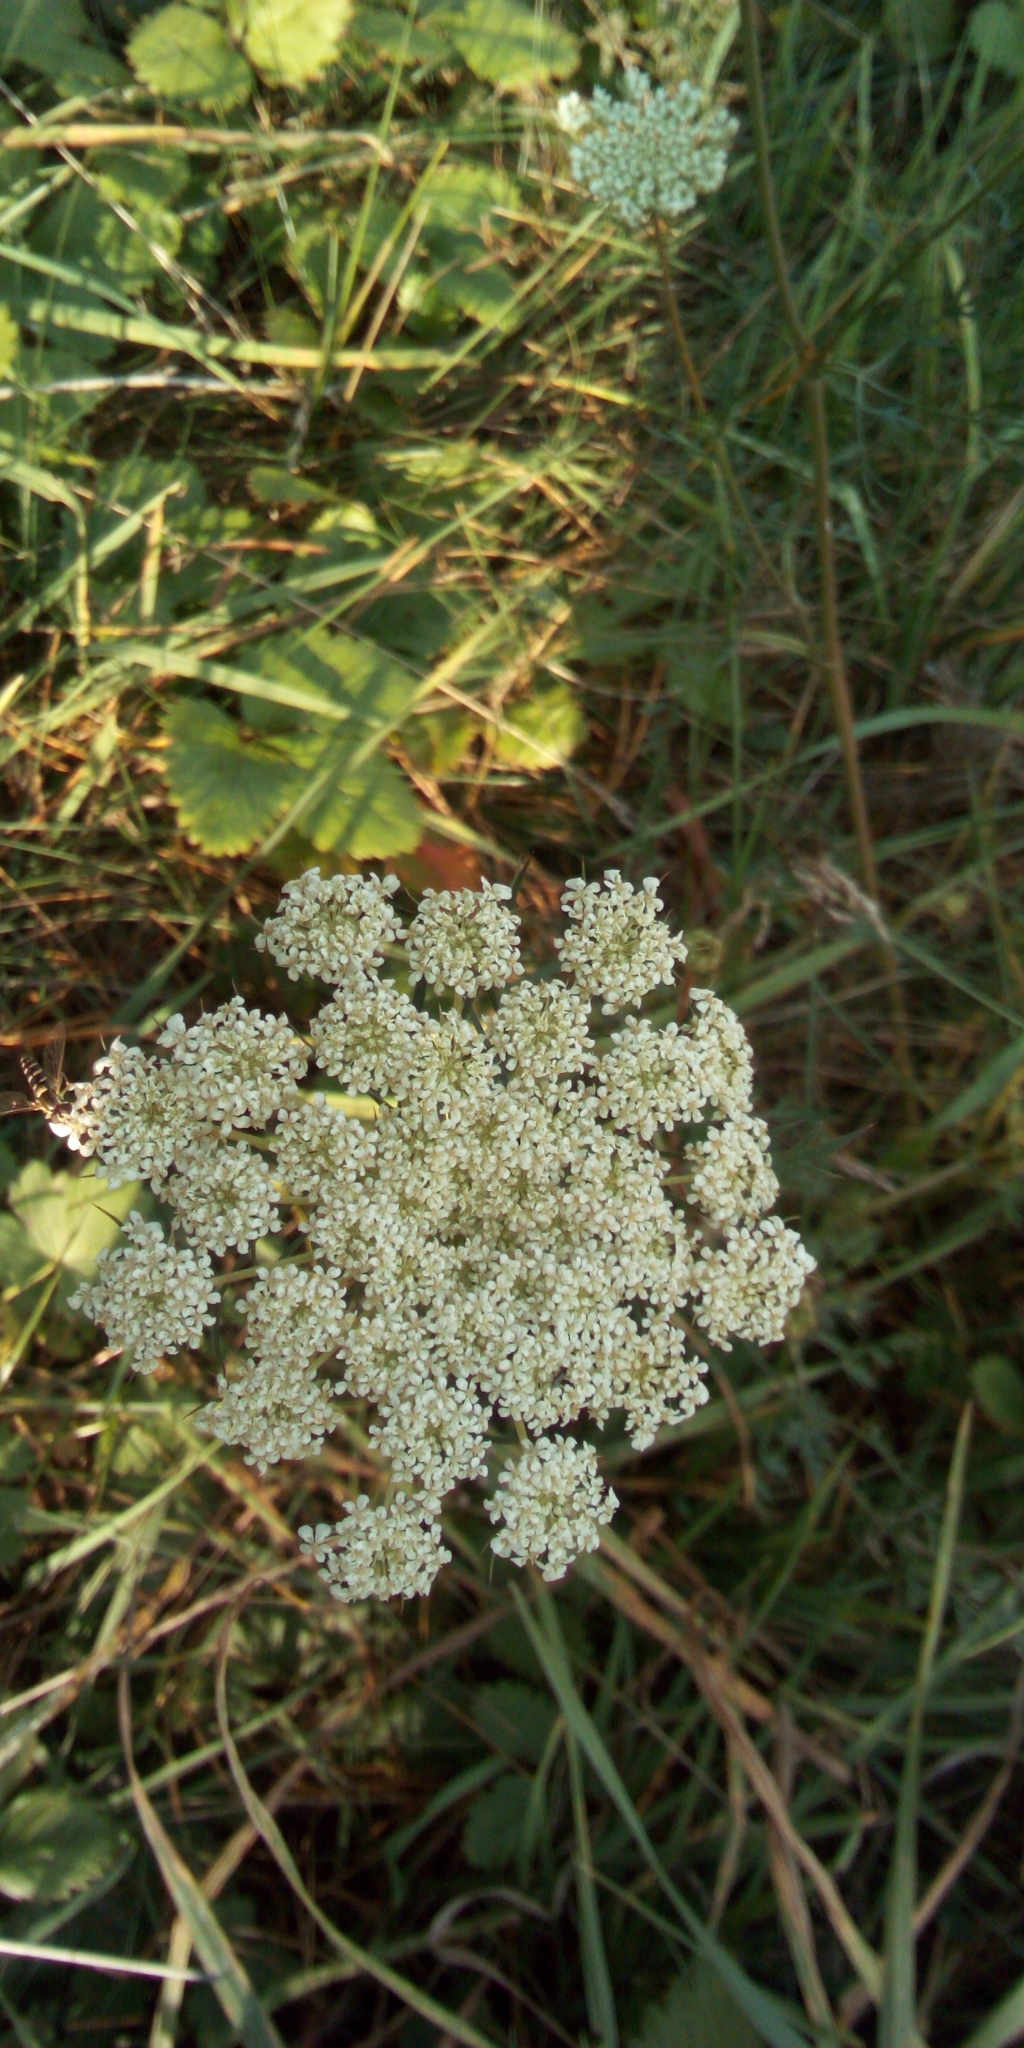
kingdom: Plantae
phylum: Tracheophyta
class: Magnoliopsida
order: Apiales
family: Apiaceae
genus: Daucus
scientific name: Daucus carota
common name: Wild carrot
